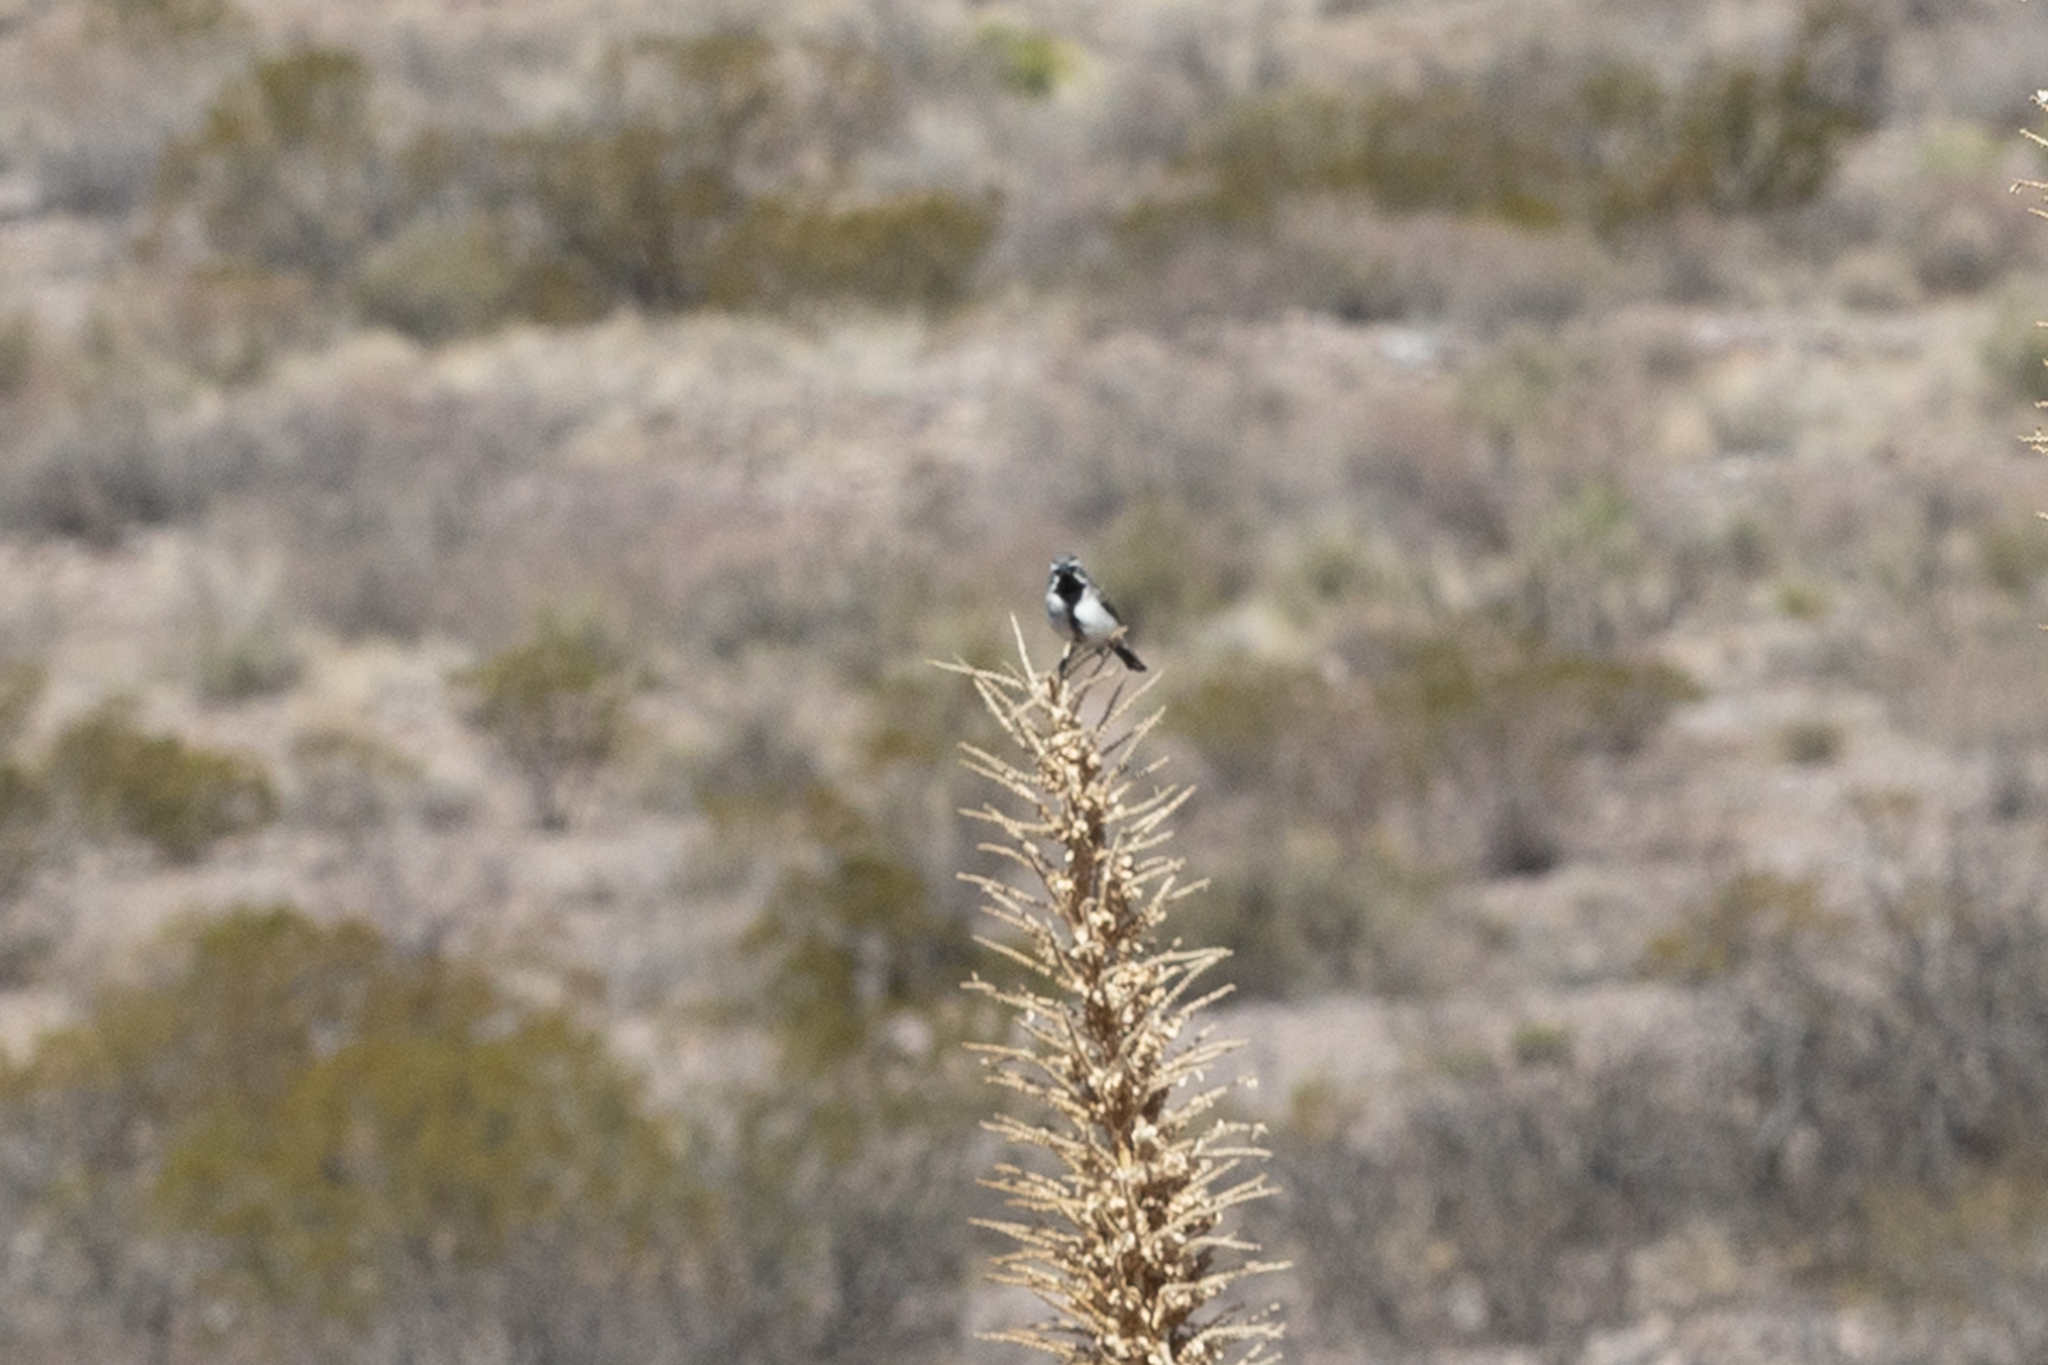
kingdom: Animalia
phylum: Chordata
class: Aves
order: Passeriformes
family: Passerellidae
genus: Amphispiza
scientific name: Amphispiza bilineata
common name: Black-throated sparrow
